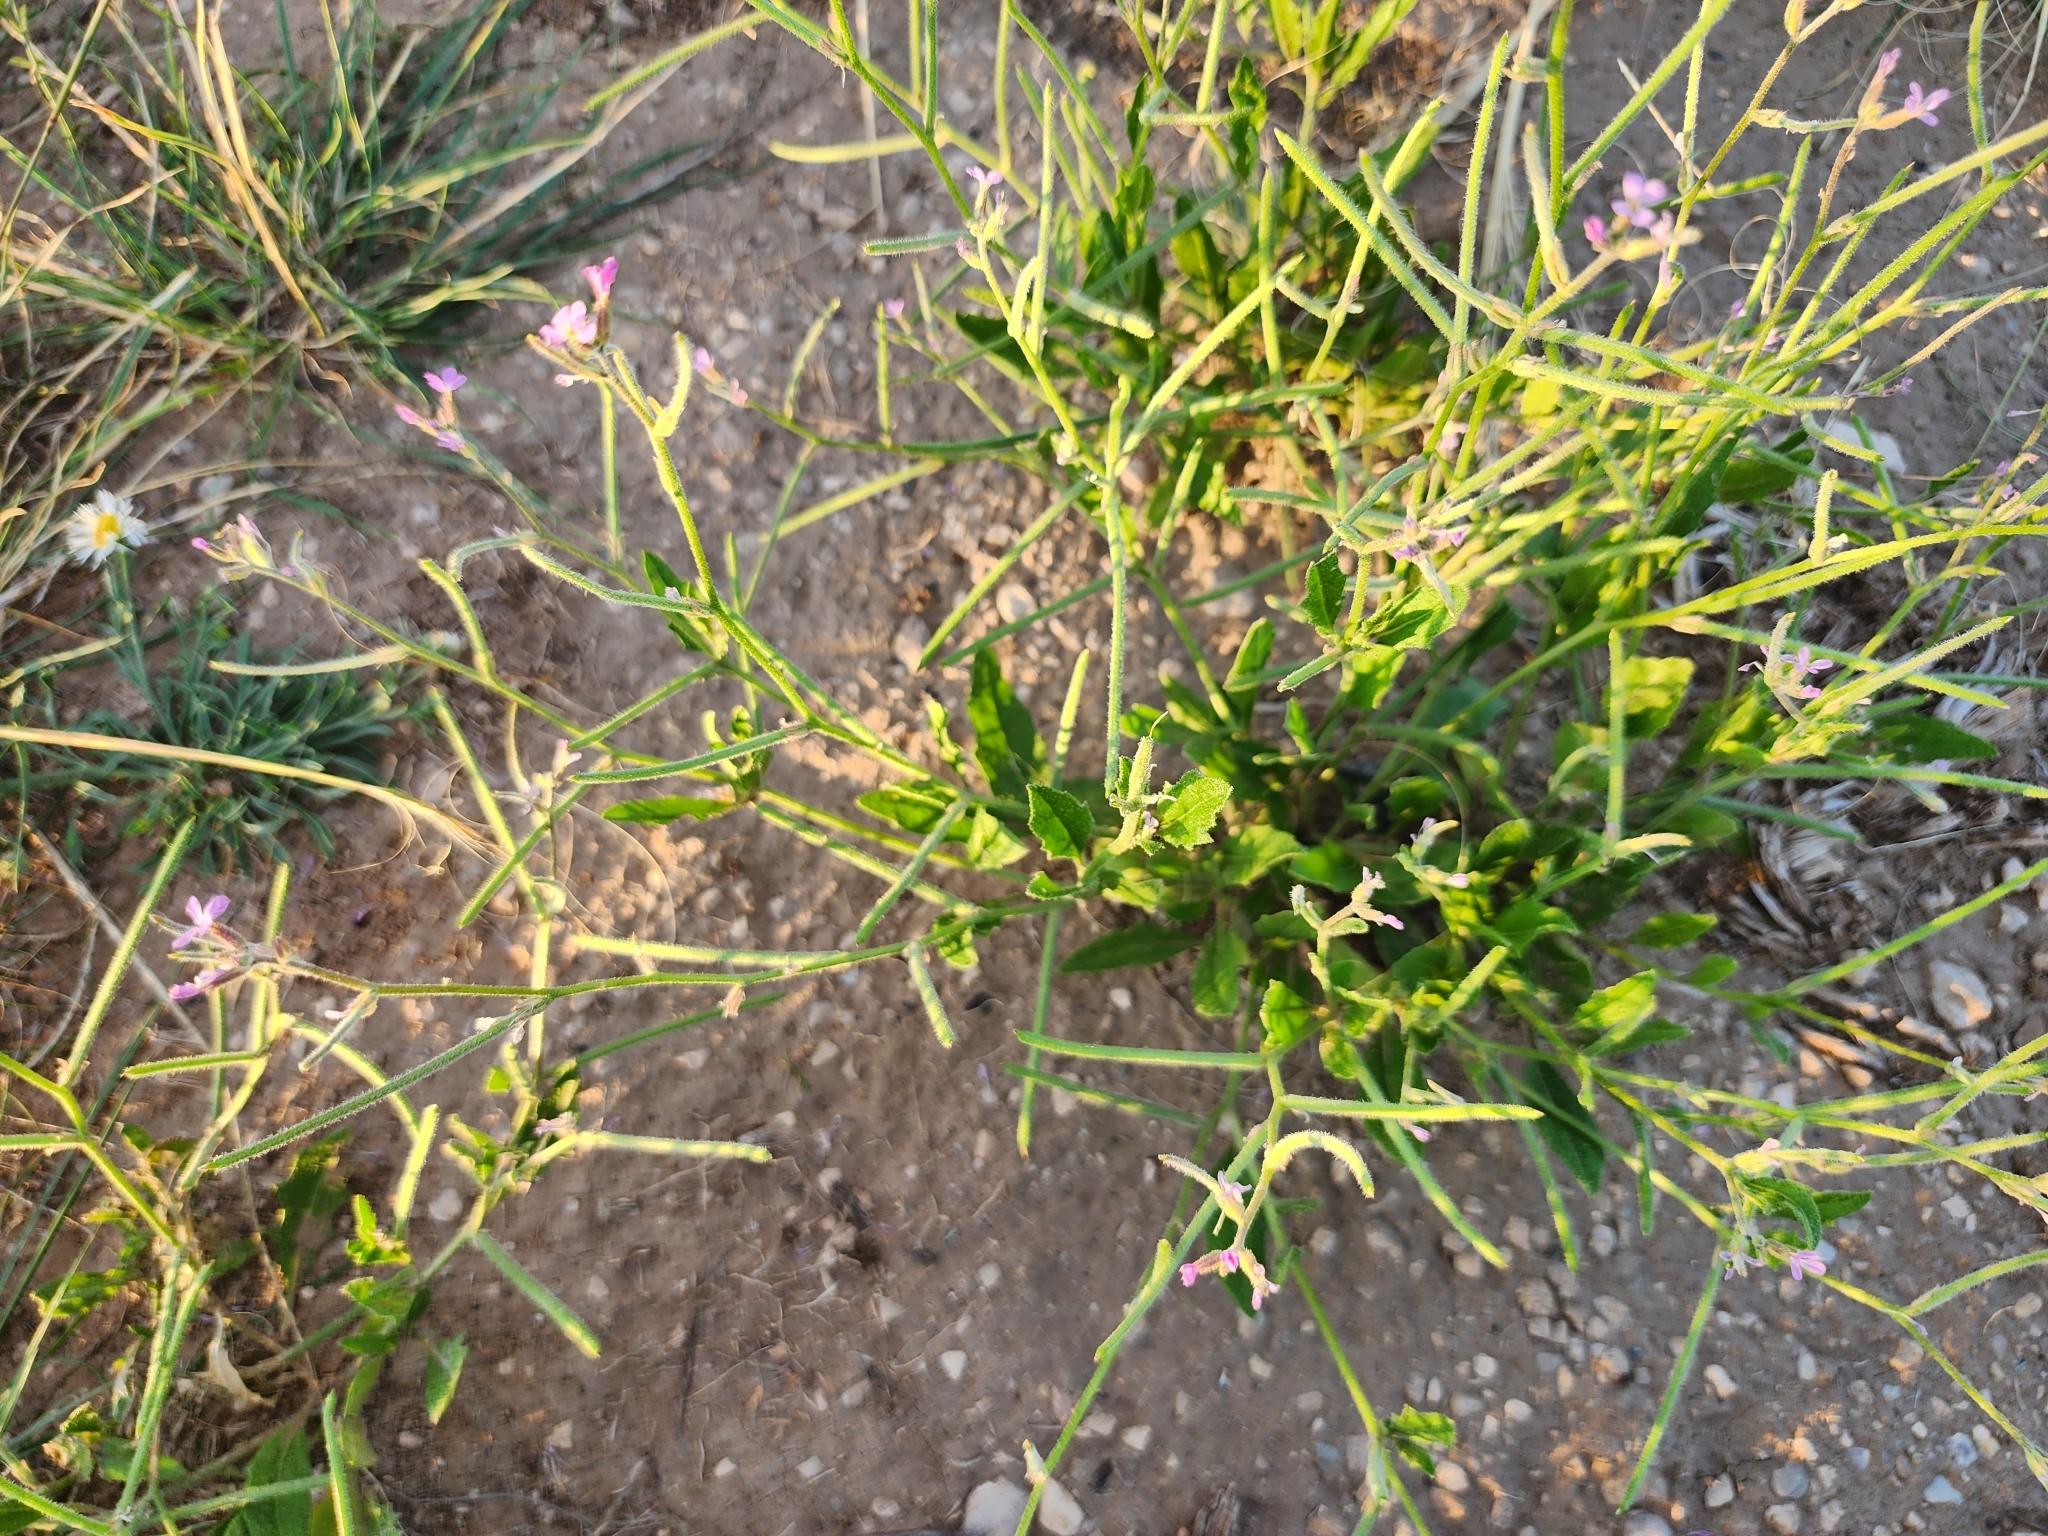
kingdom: Plantae
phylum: Tracheophyta
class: Magnoliopsida
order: Brassicales
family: Brassicaceae
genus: Strigosella
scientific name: Strigosella africana
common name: African mustard
